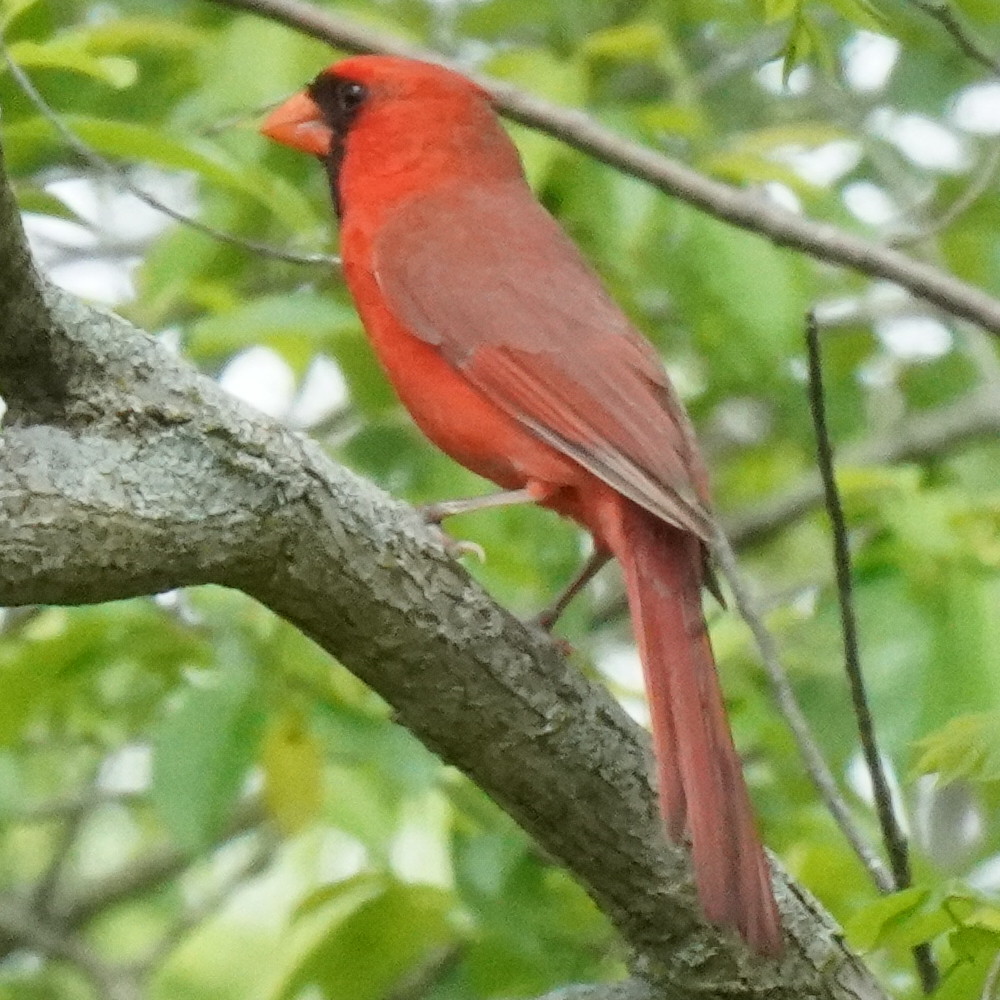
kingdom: Animalia
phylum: Chordata
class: Aves
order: Passeriformes
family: Cardinalidae
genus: Cardinalis
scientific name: Cardinalis cardinalis
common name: Northern cardinal
